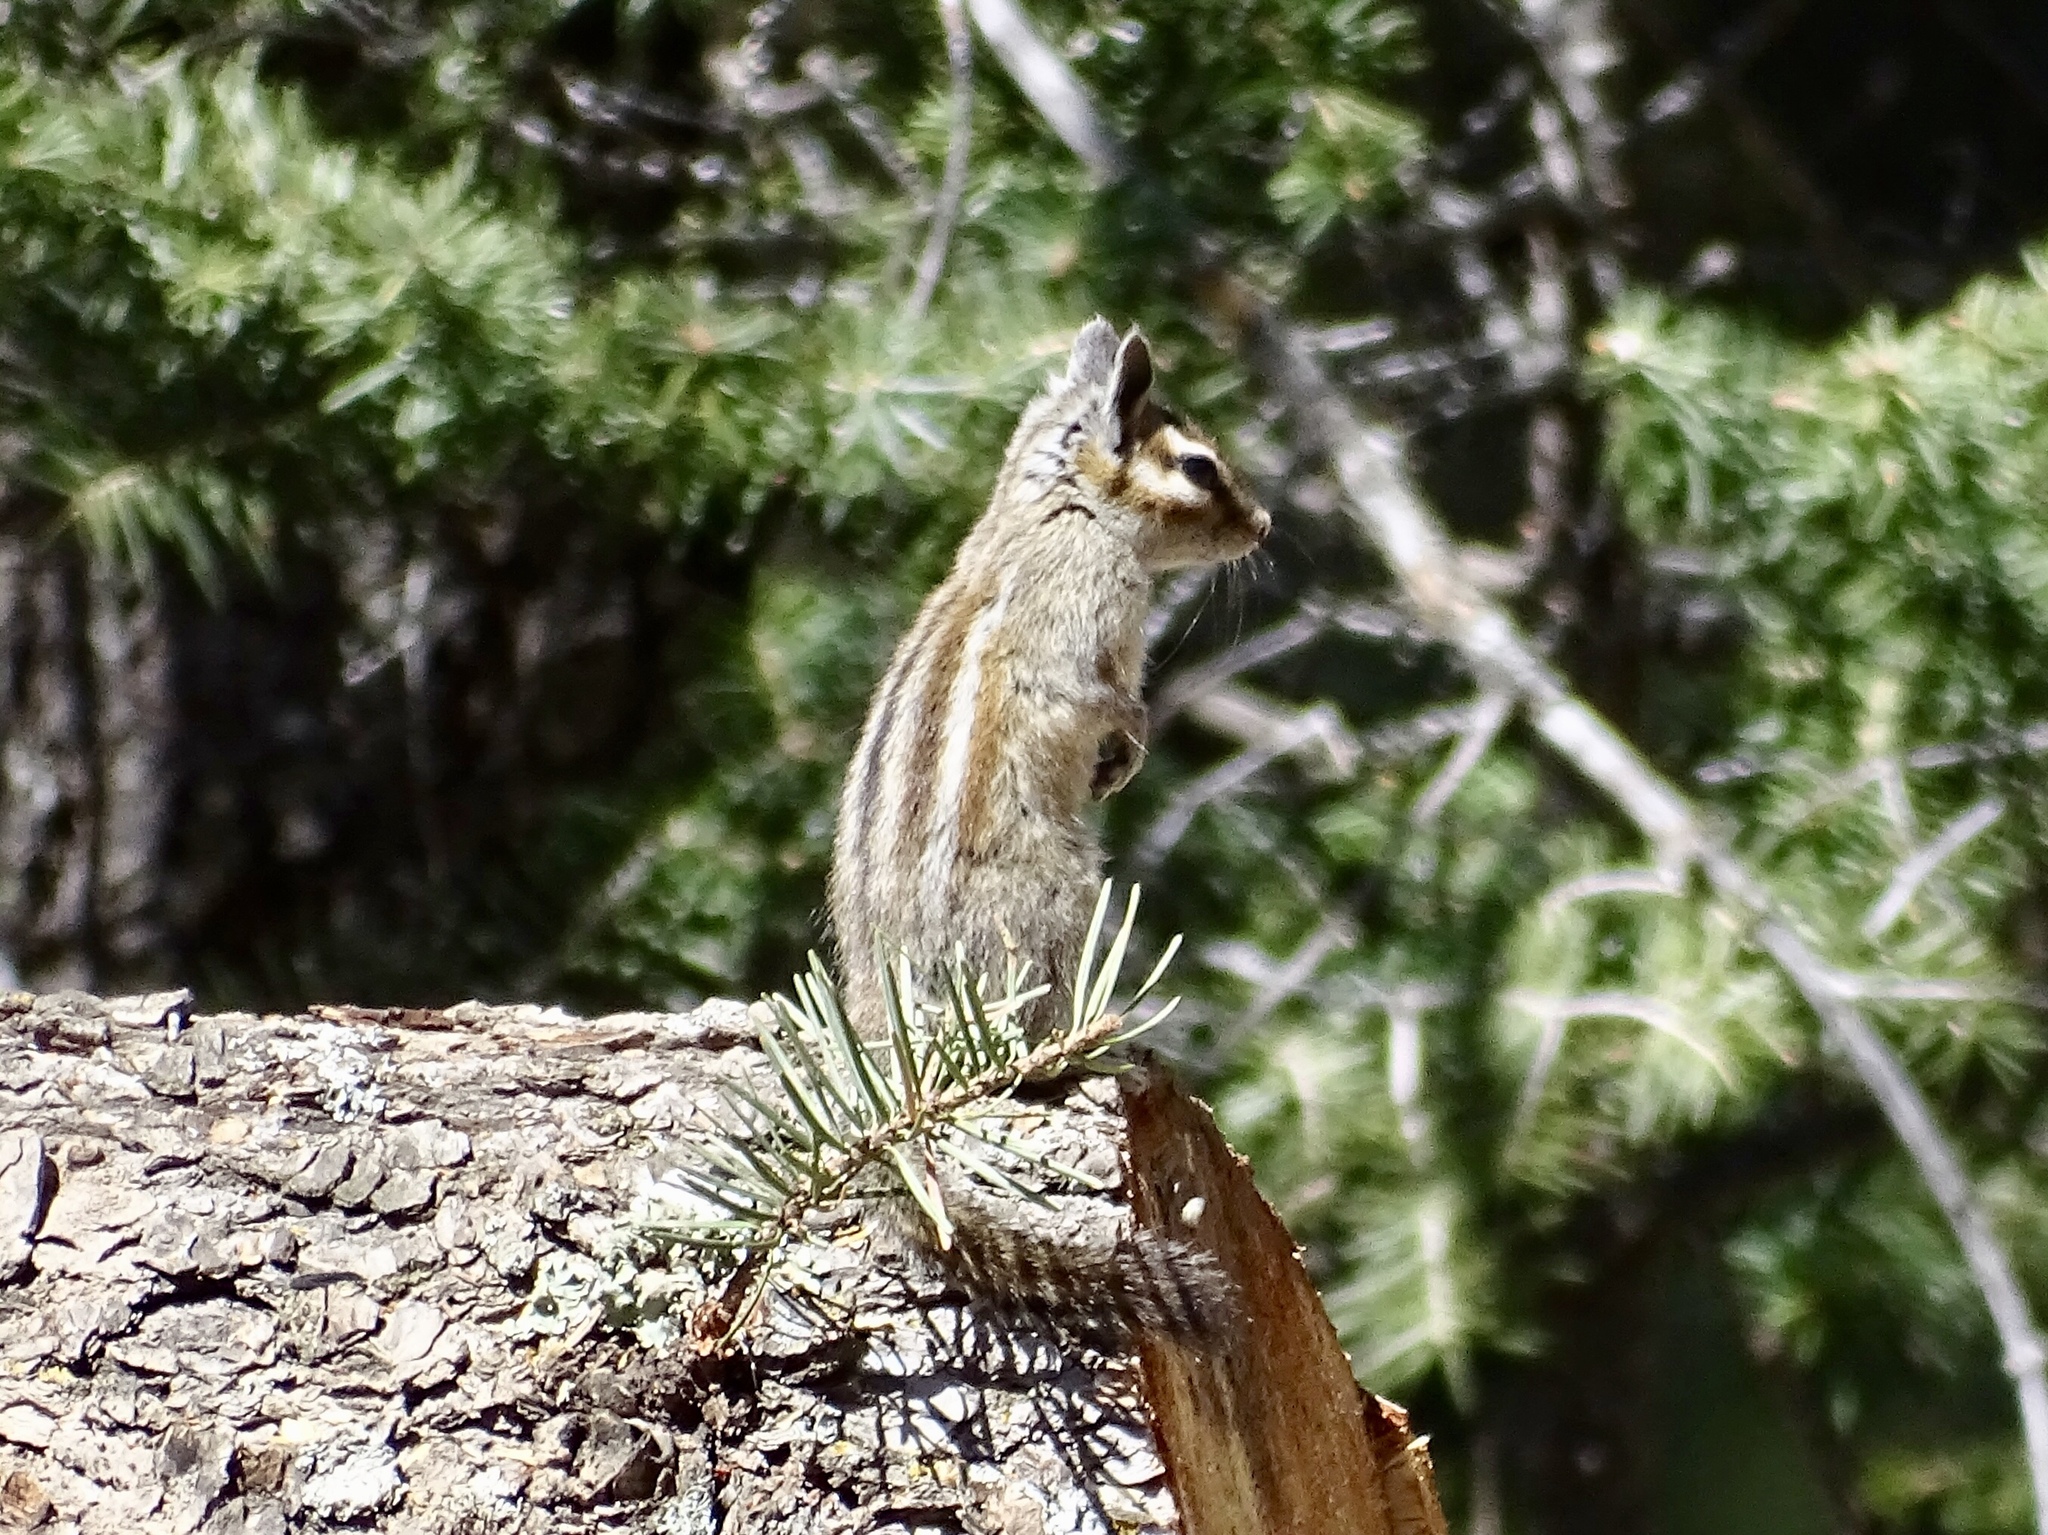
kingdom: Animalia
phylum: Chordata
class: Mammalia
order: Rodentia
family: Sciuridae
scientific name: Sciuridae
